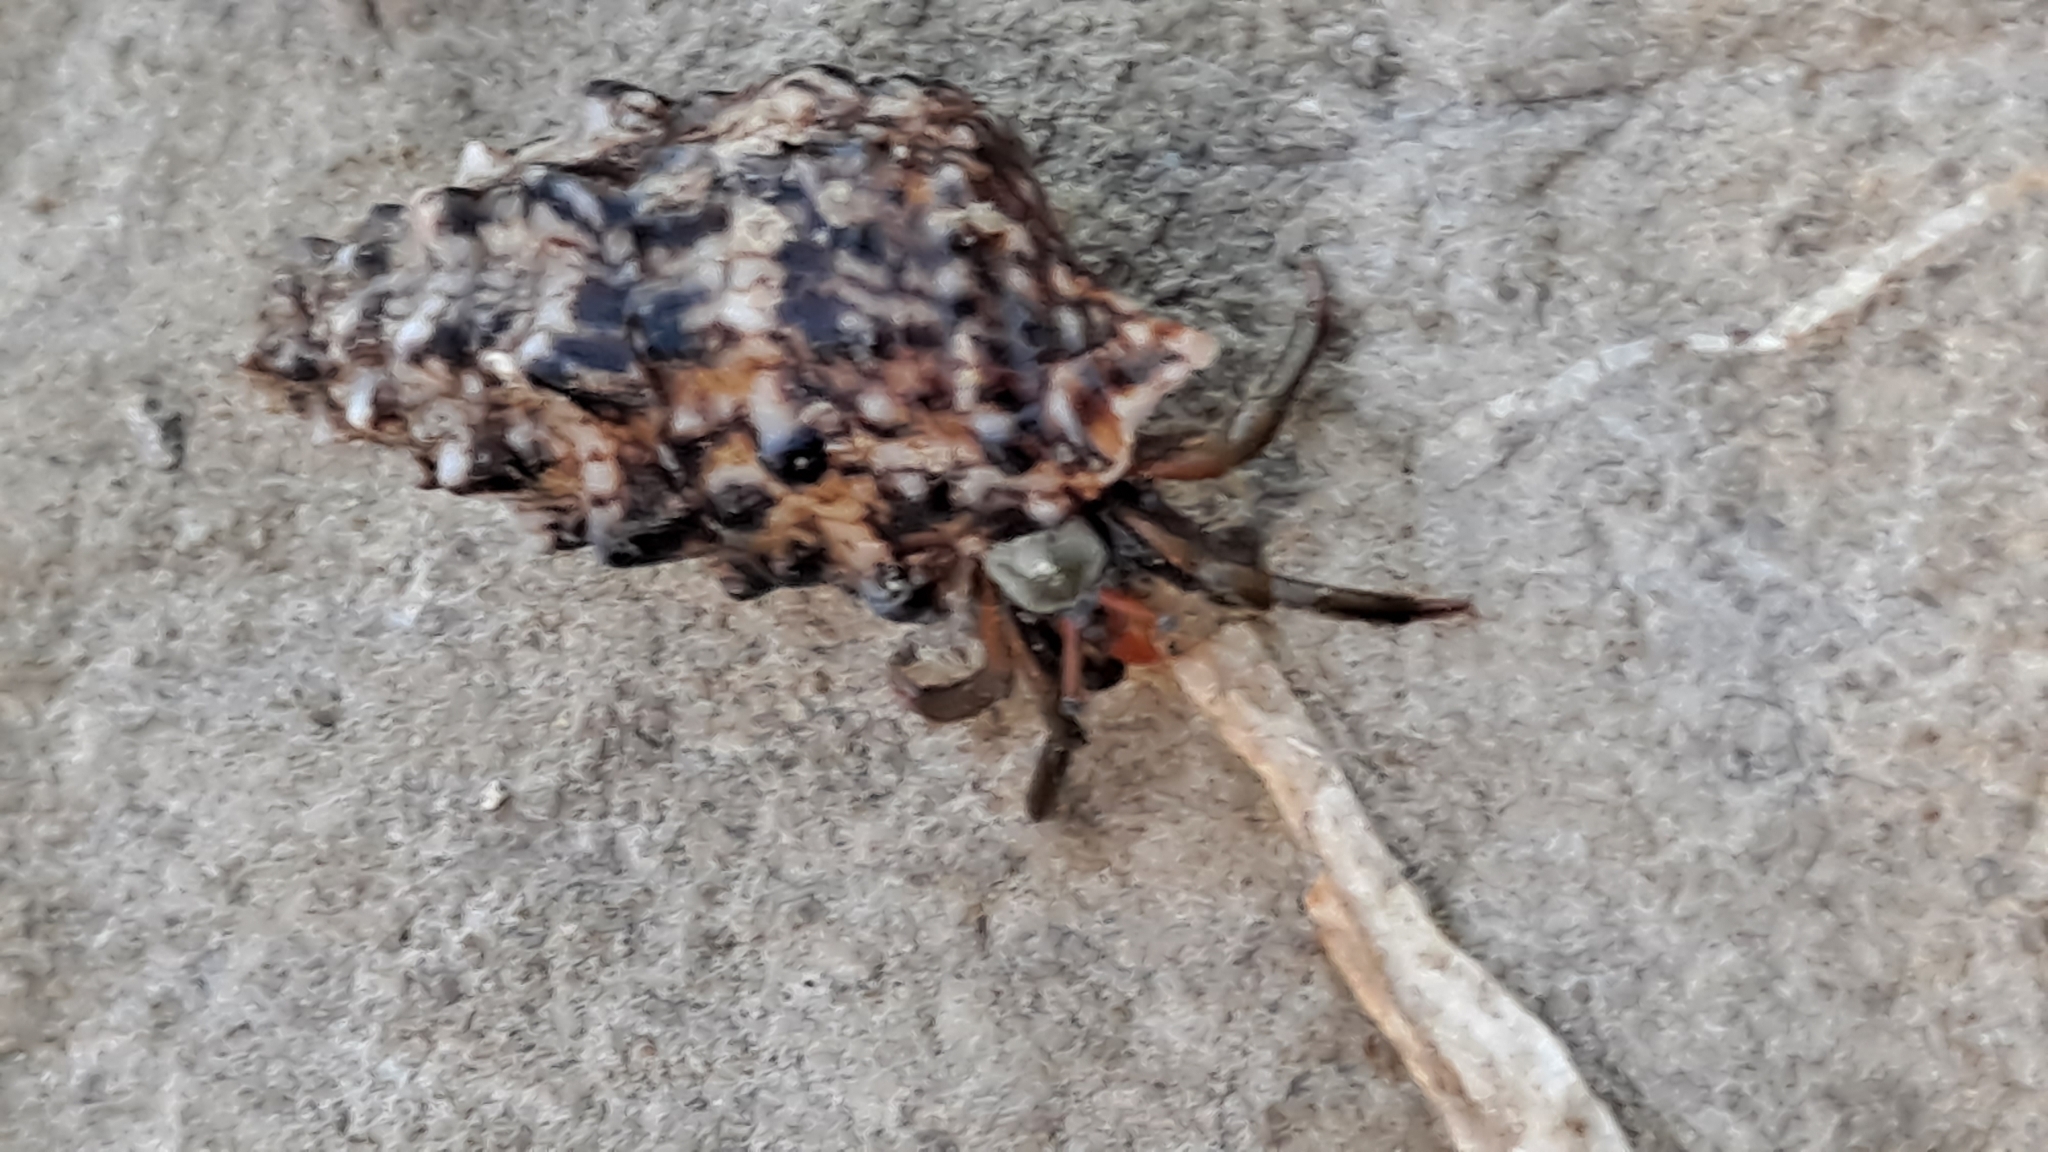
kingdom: Animalia
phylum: Arthropoda
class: Malacostraca
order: Decapoda
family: Diogenidae
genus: Clibanarius
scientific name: Clibanarius erythropus
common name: Hermit crab
